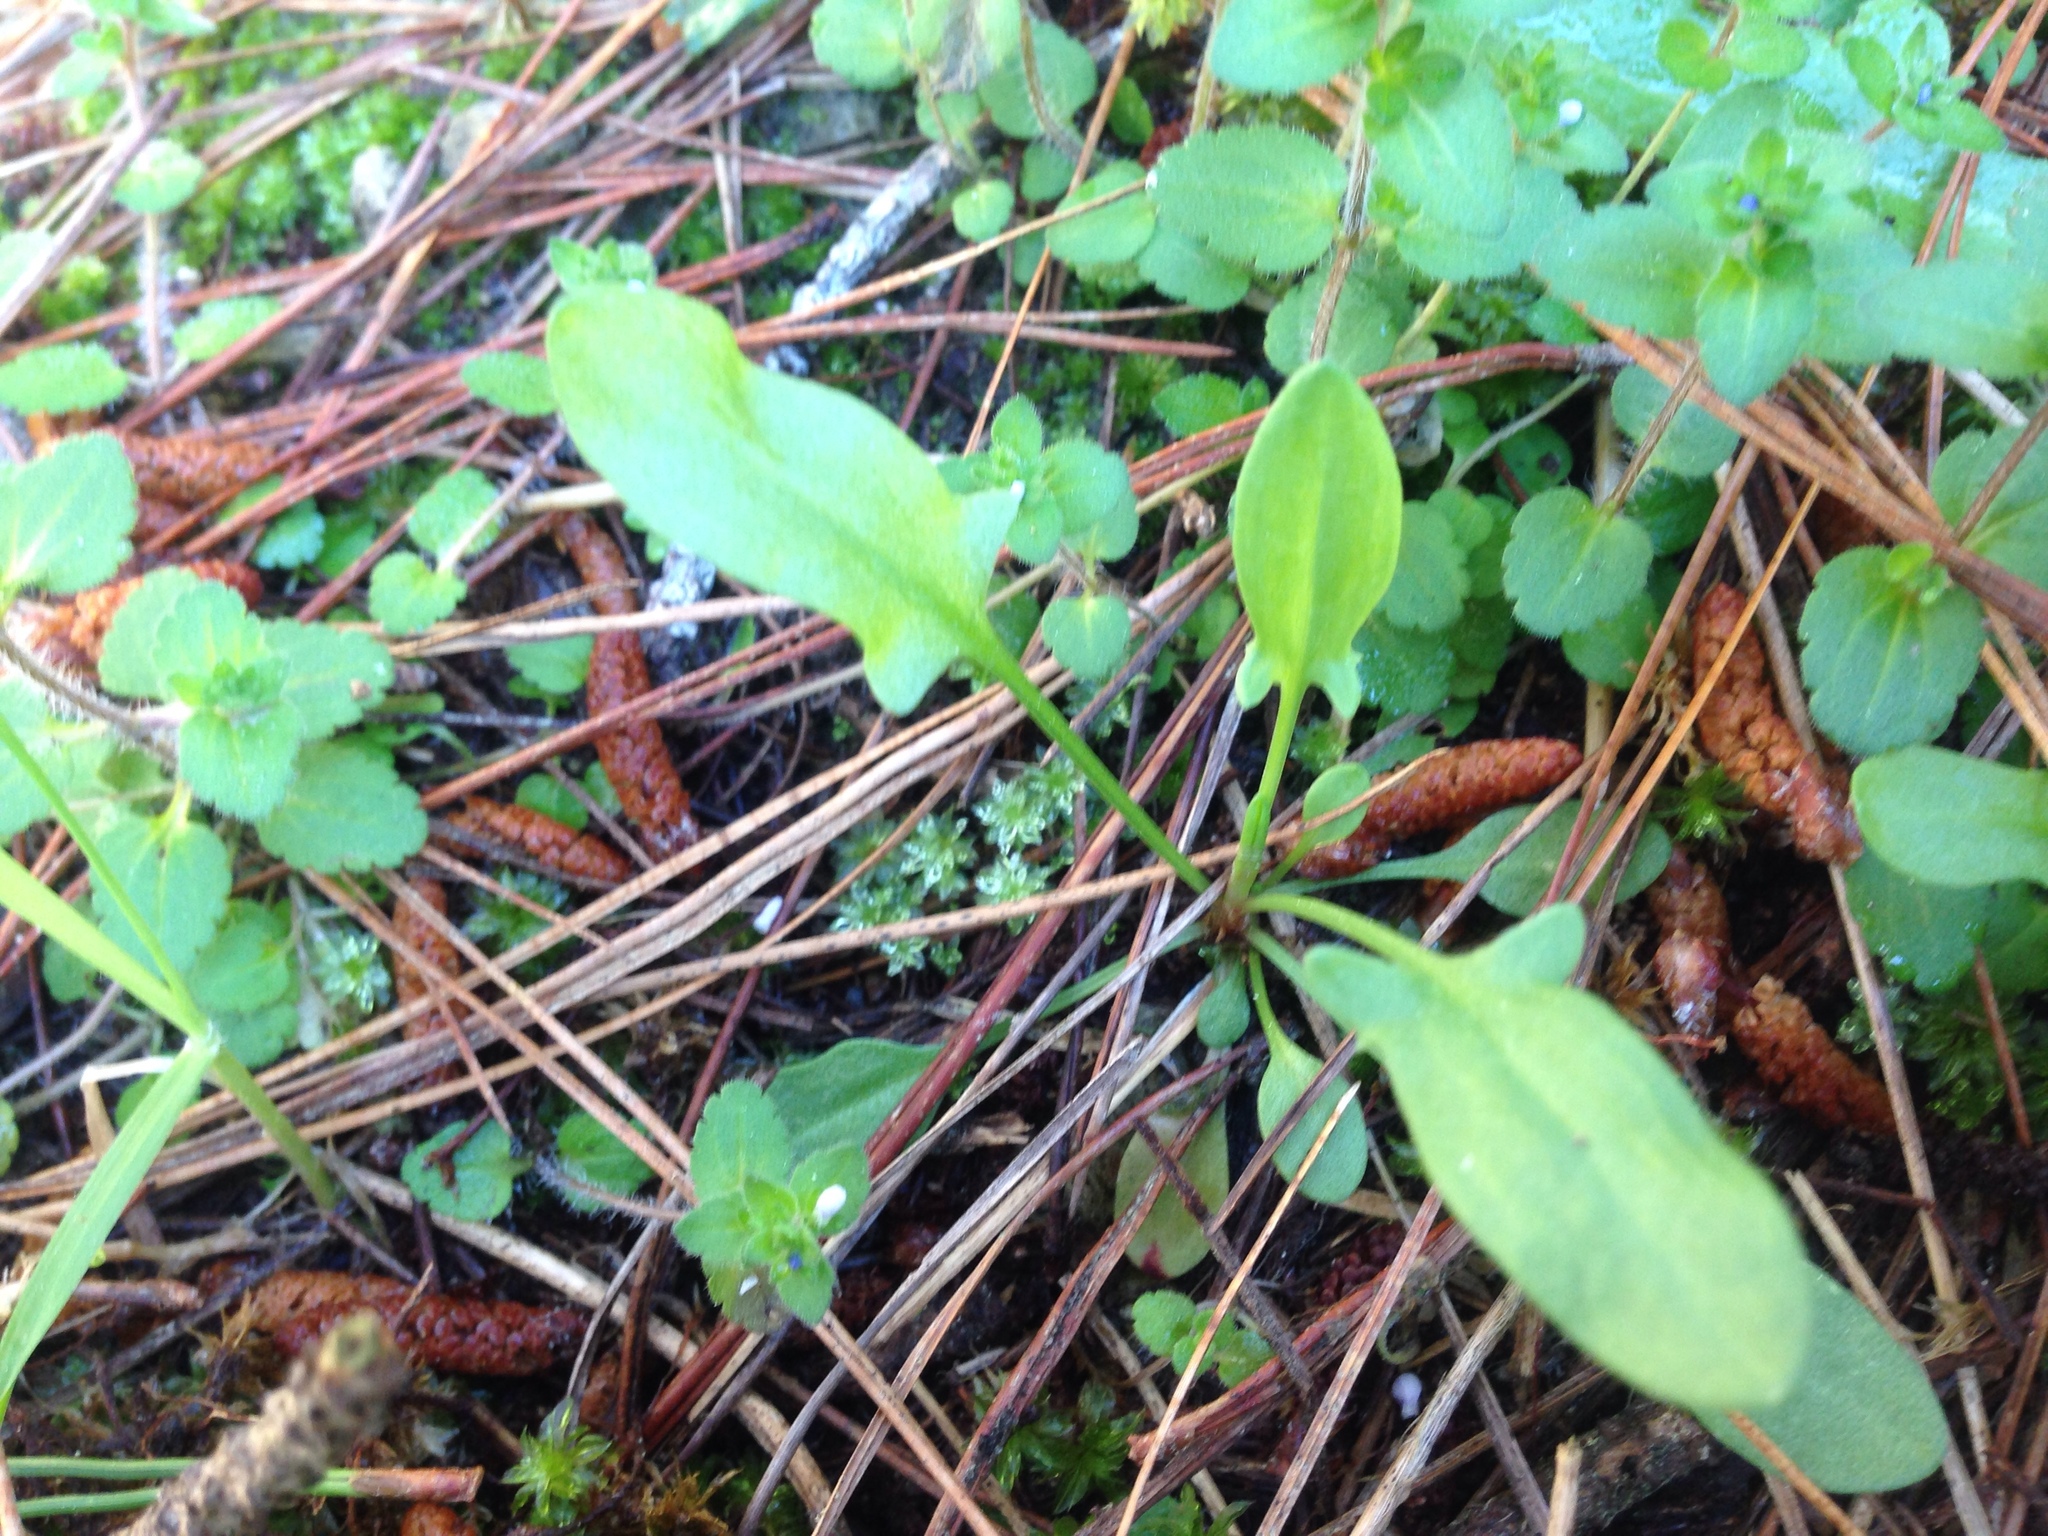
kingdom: Plantae
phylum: Tracheophyta
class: Magnoliopsida
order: Caryophyllales
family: Polygonaceae
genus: Rumex
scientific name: Rumex acetosella
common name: Common sheep sorrel
